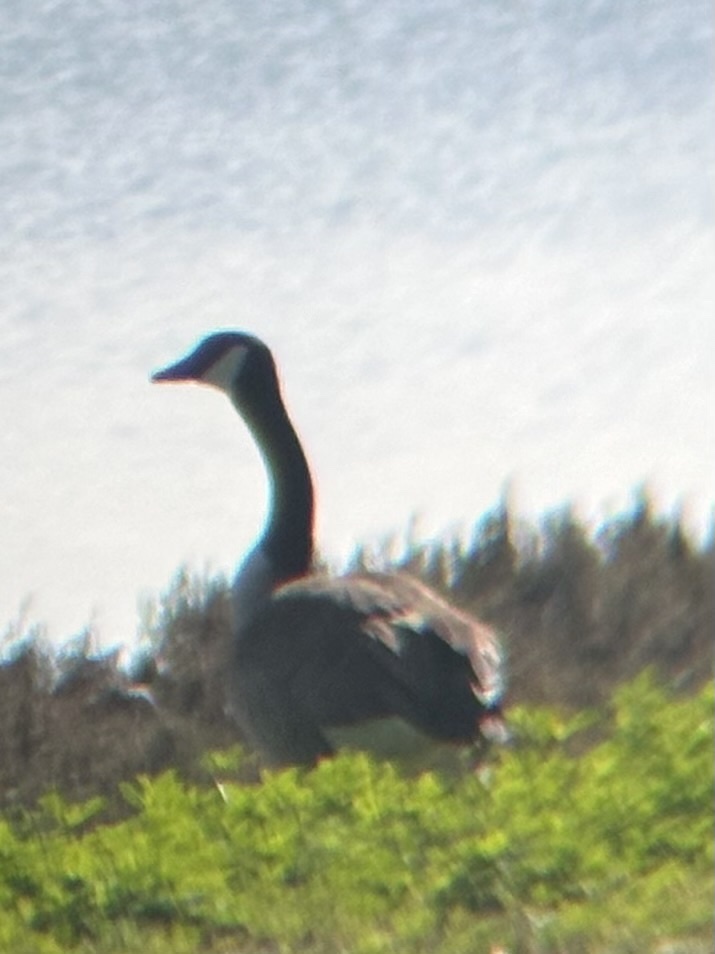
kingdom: Animalia
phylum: Chordata
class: Aves
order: Anseriformes
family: Anatidae
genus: Branta
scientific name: Branta canadensis
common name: Canada goose
